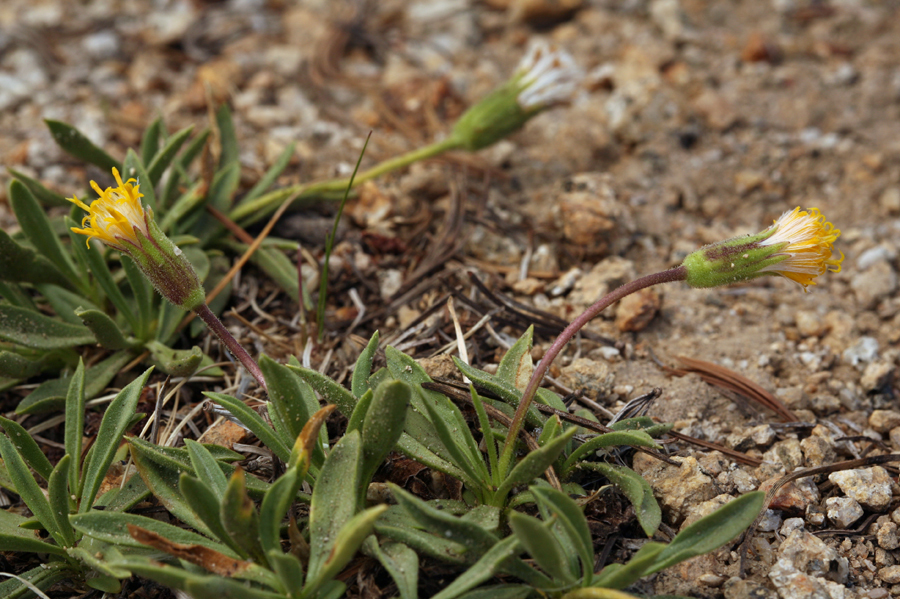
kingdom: Plantae
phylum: Tracheophyta
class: Magnoliopsida
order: Asterales
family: Asteraceae
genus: Raillardella
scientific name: Raillardella scaposa
